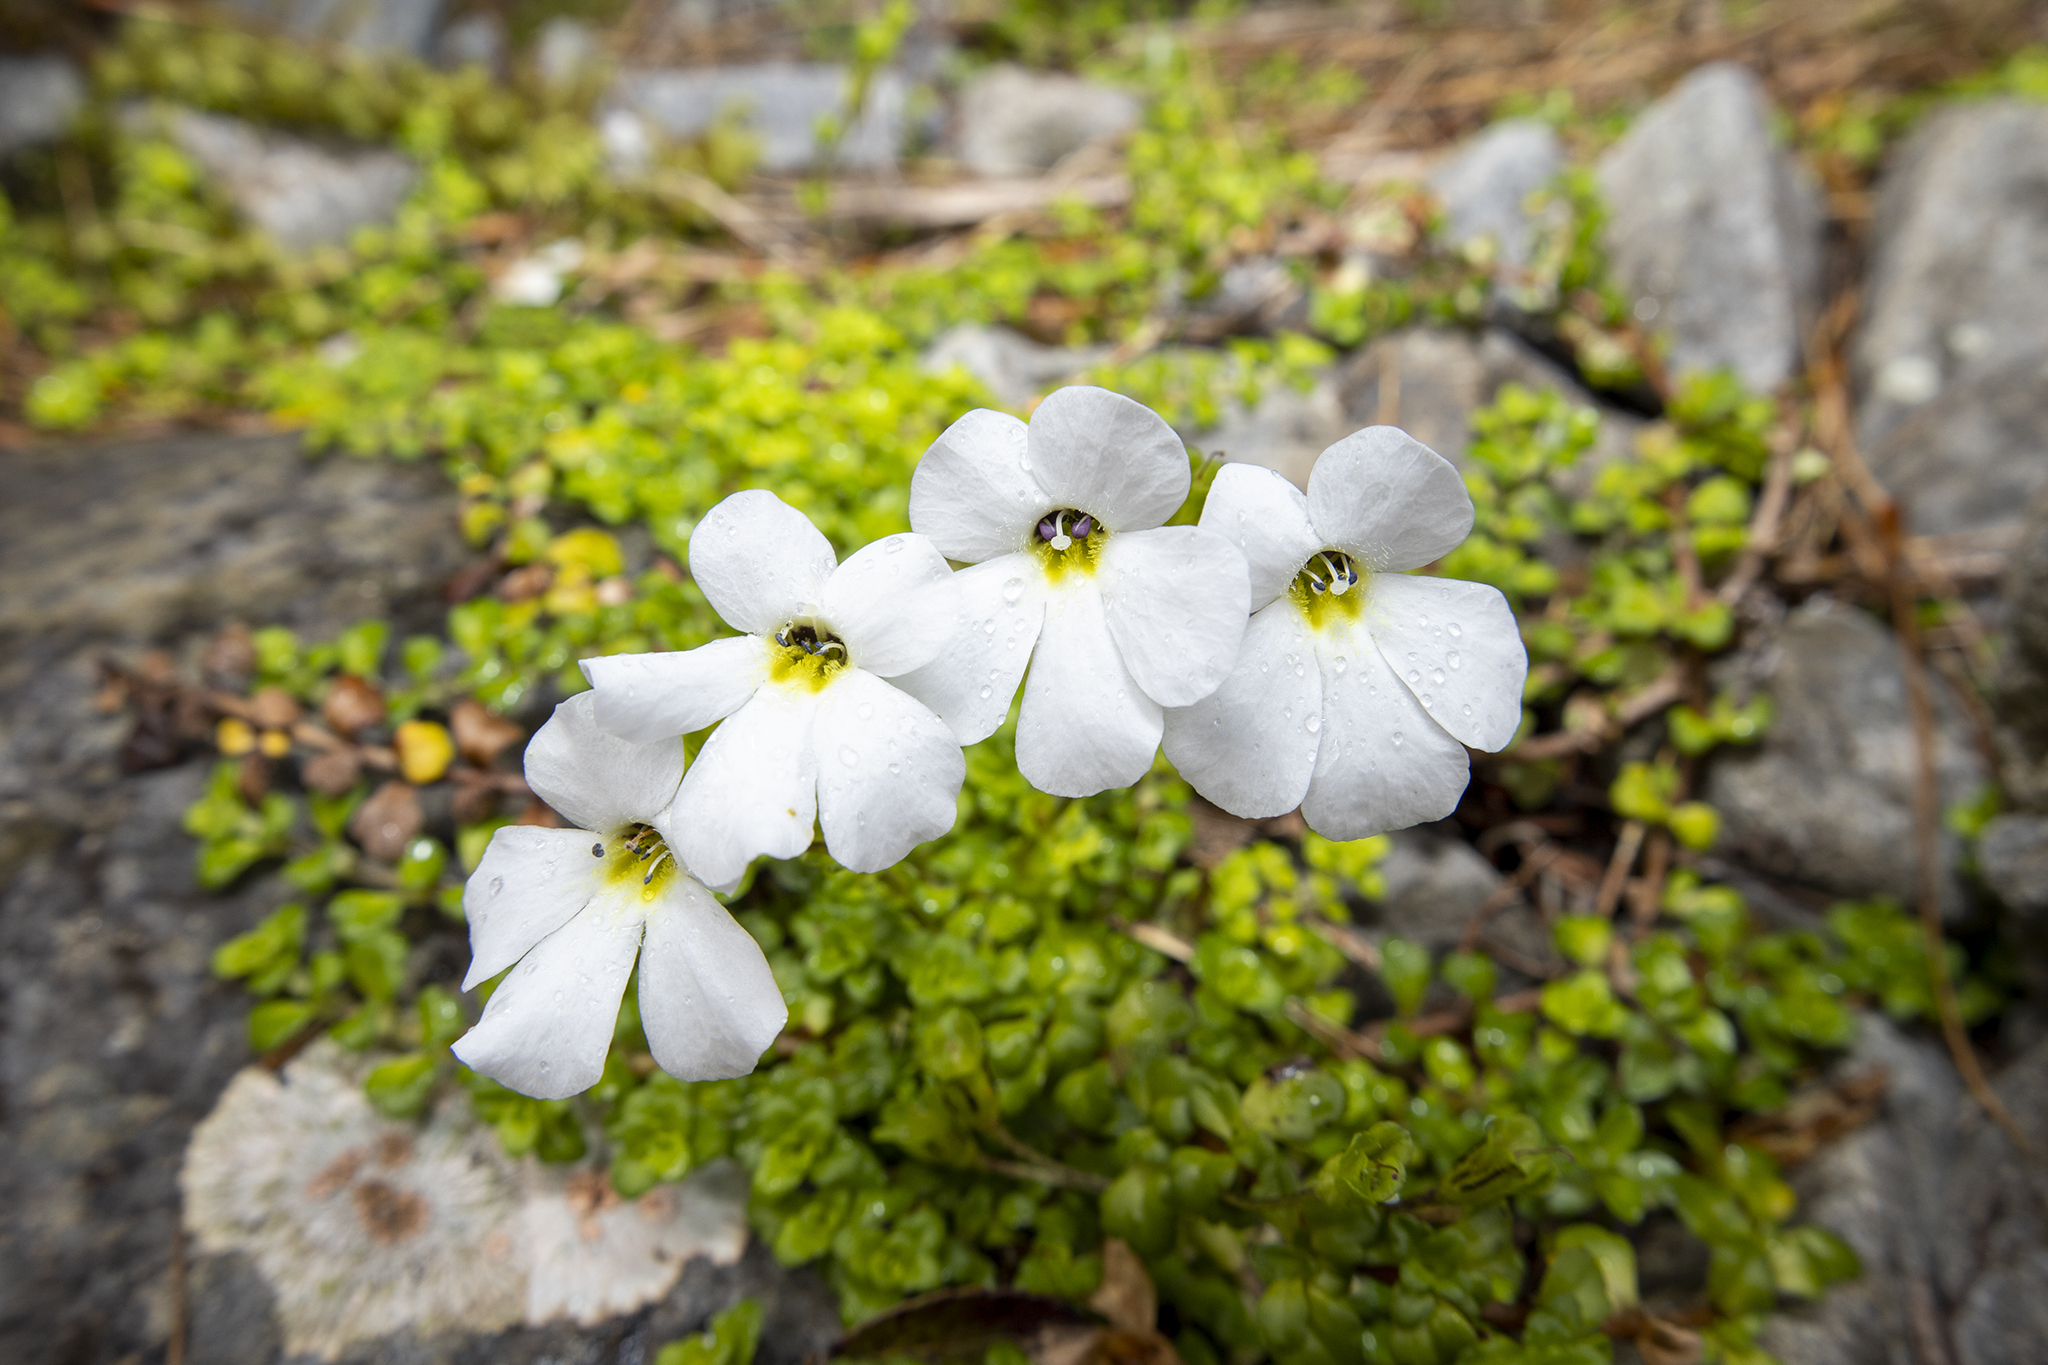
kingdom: Plantae
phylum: Tracheophyta
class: Magnoliopsida
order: Lamiales
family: Plantaginaceae
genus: Ourisia
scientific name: Ourisia caespitosa
